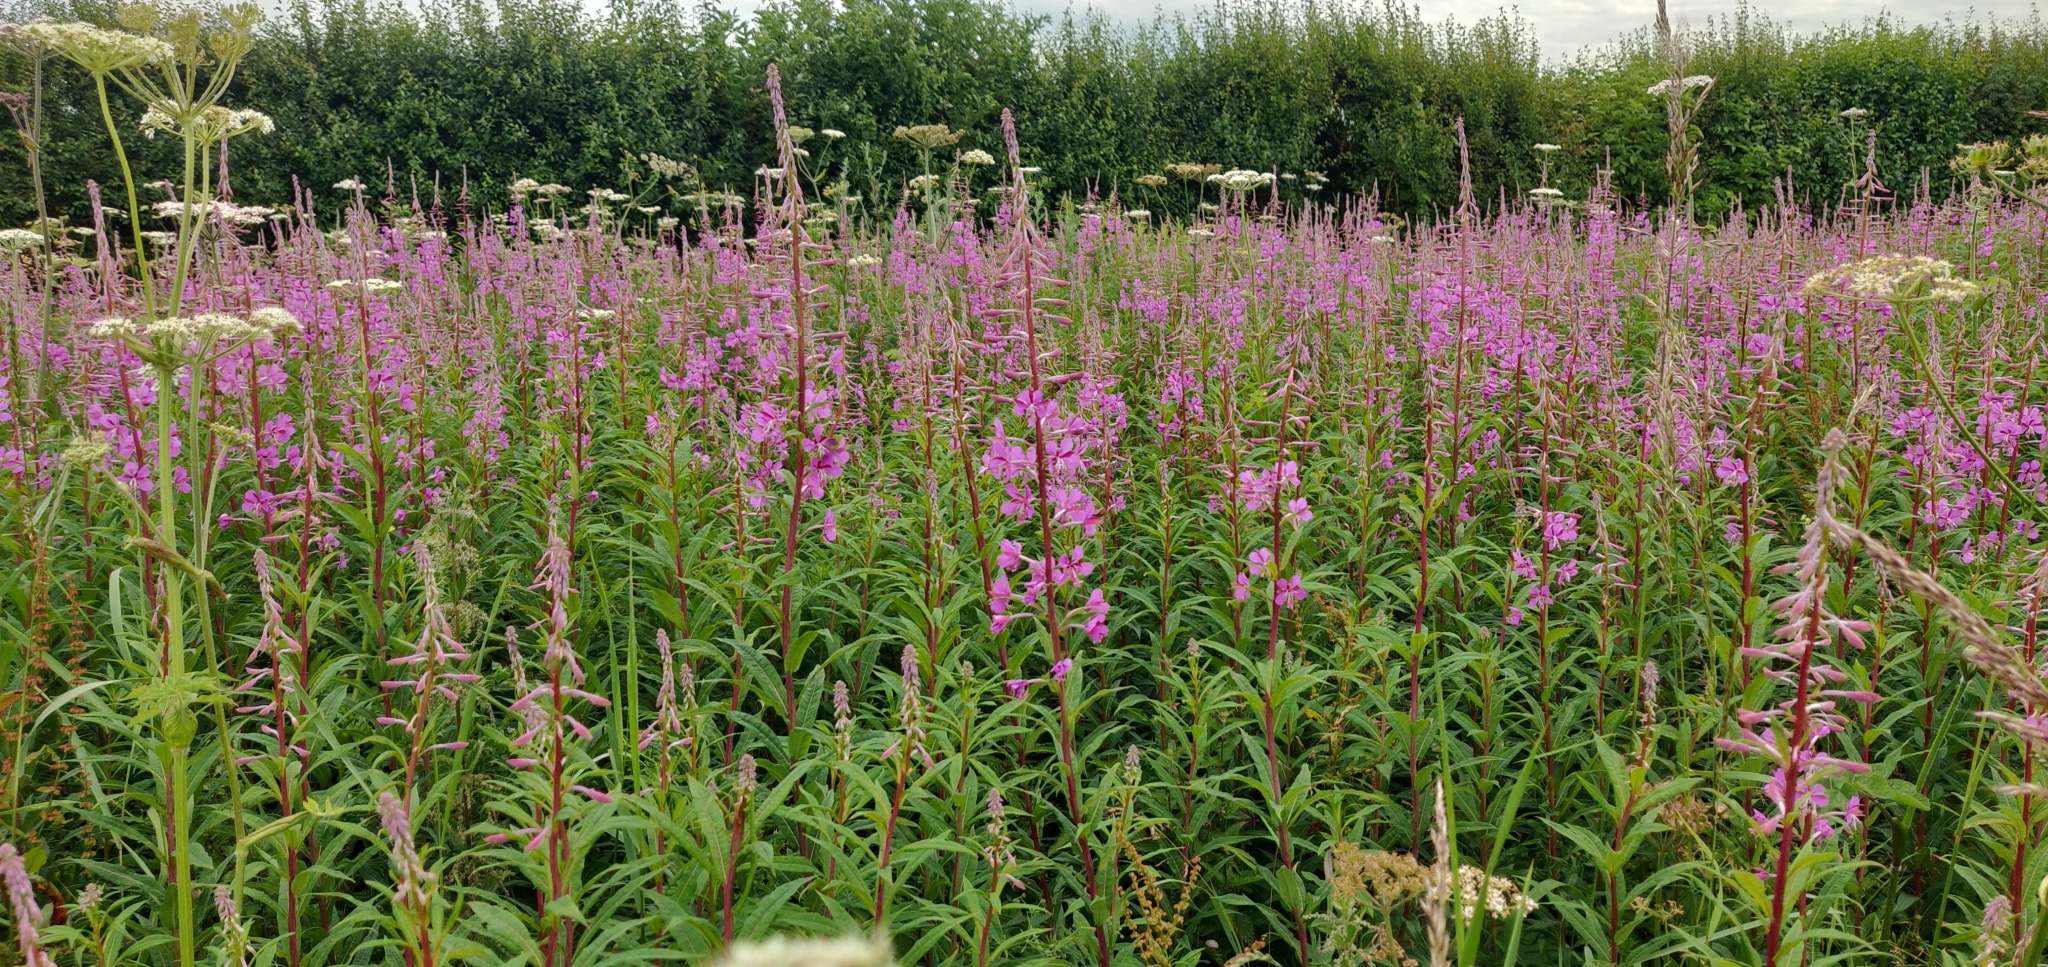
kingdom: Plantae
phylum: Tracheophyta
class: Magnoliopsida
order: Myrtales
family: Onagraceae
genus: Chamaenerion
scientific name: Chamaenerion angustifolium
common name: Fireweed
